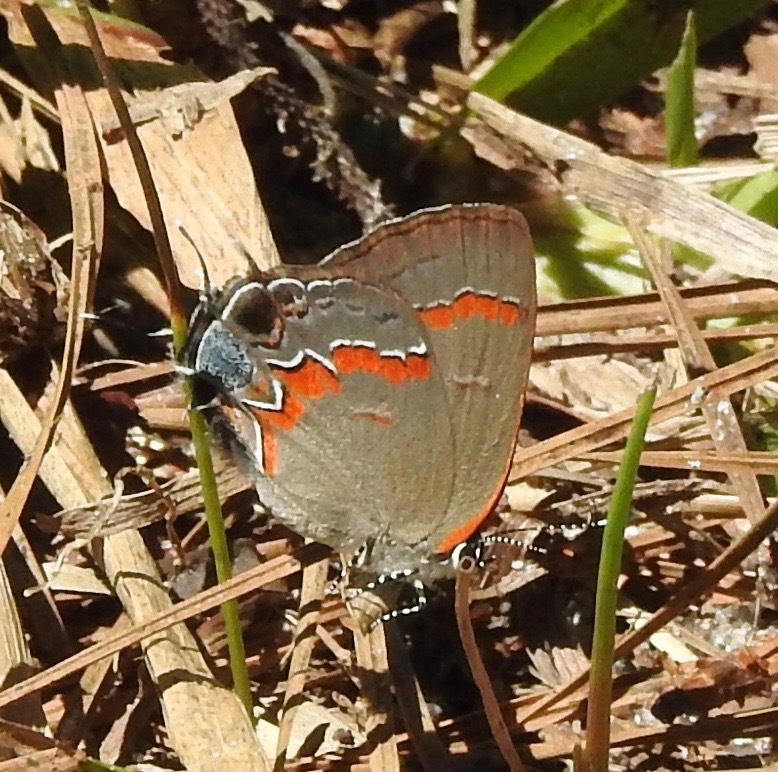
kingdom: Animalia
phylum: Arthropoda
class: Insecta
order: Lepidoptera
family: Lycaenidae
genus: Calycopis
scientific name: Calycopis cecrops
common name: Red-banded hairstreak
